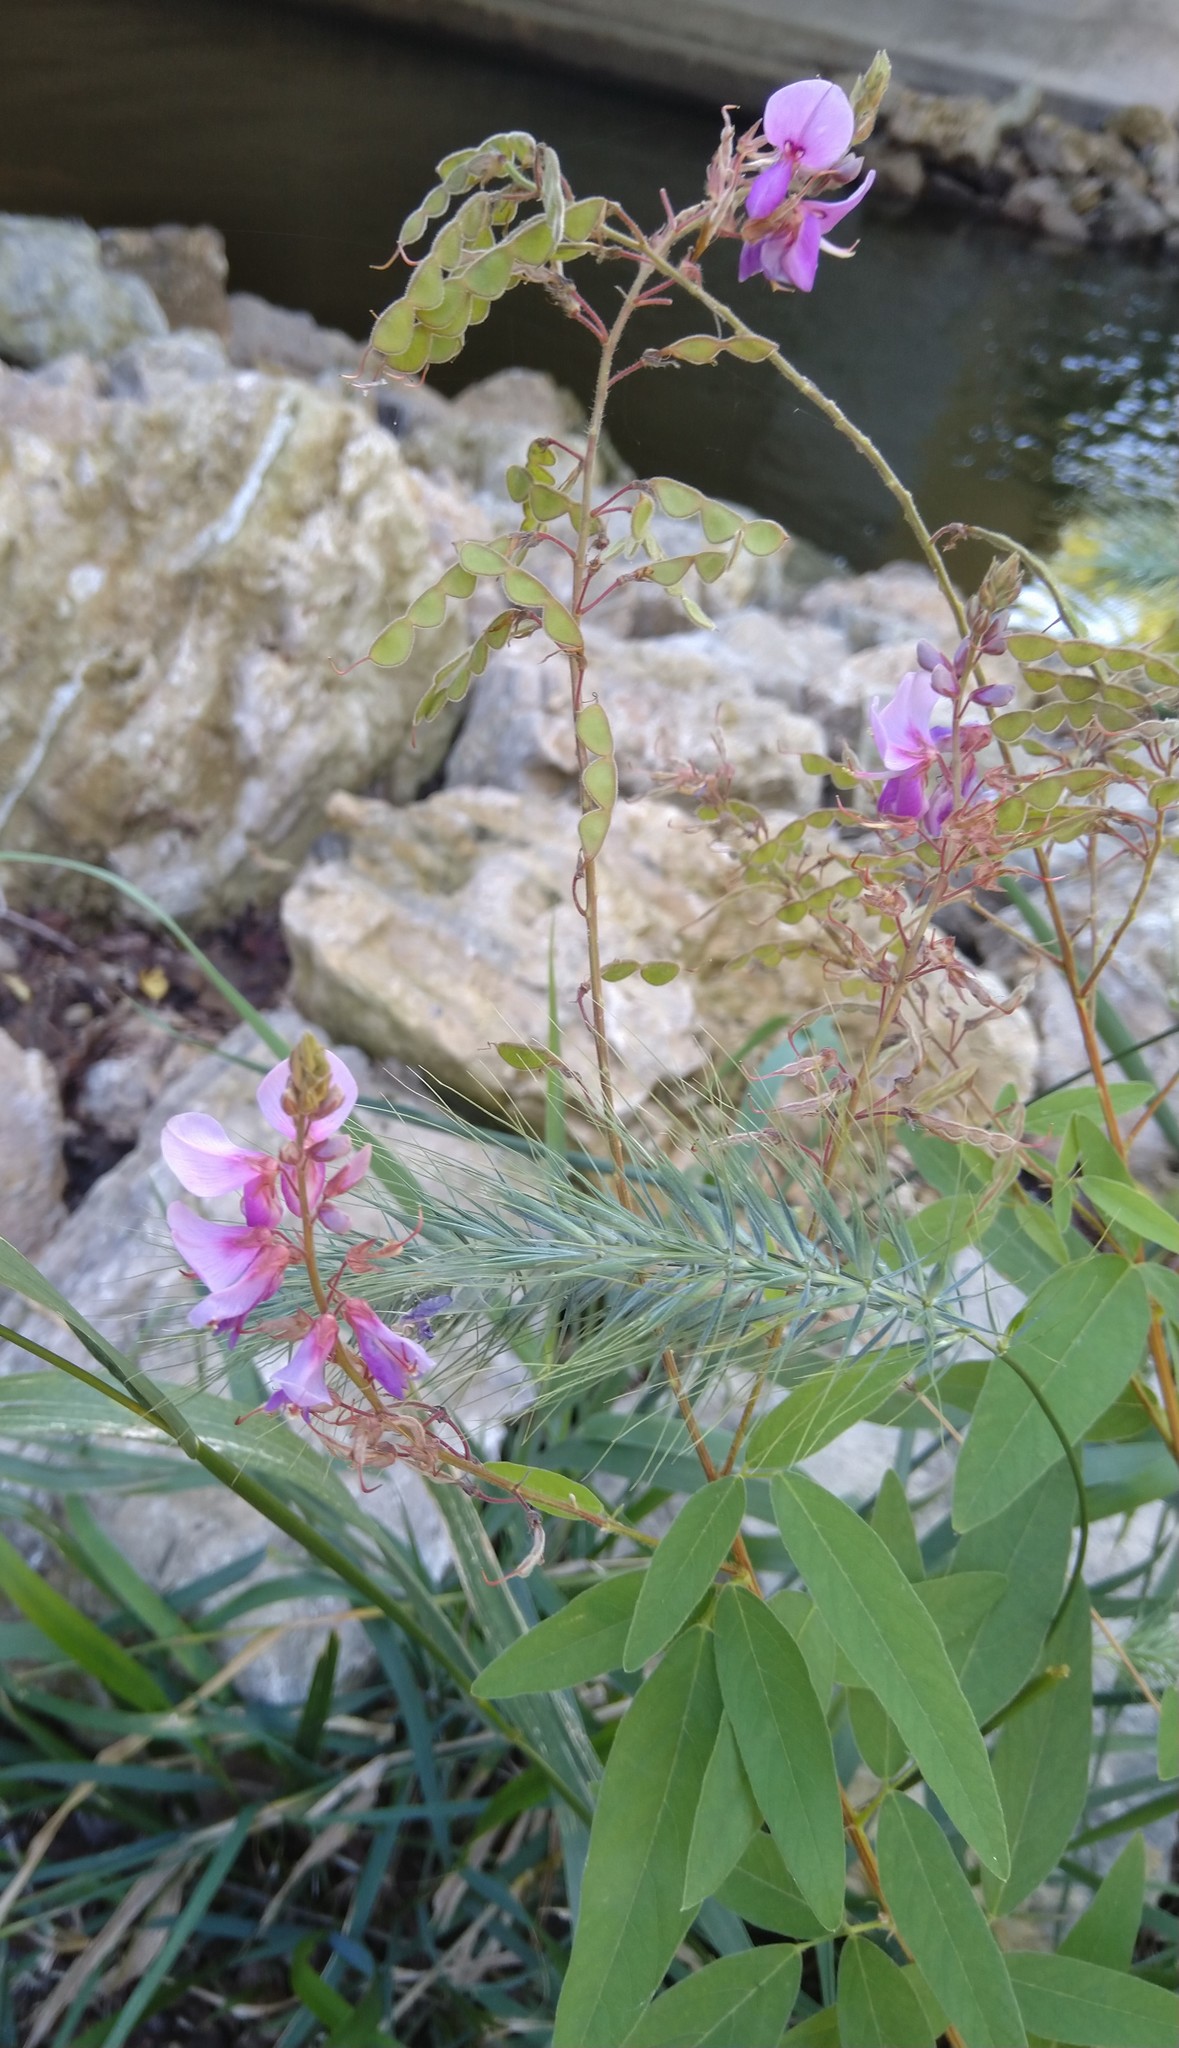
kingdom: Plantae
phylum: Tracheophyta
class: Magnoliopsida
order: Fabales
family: Fabaceae
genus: Desmodium
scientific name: Desmodium canadense
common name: Canada tick-trefoil
